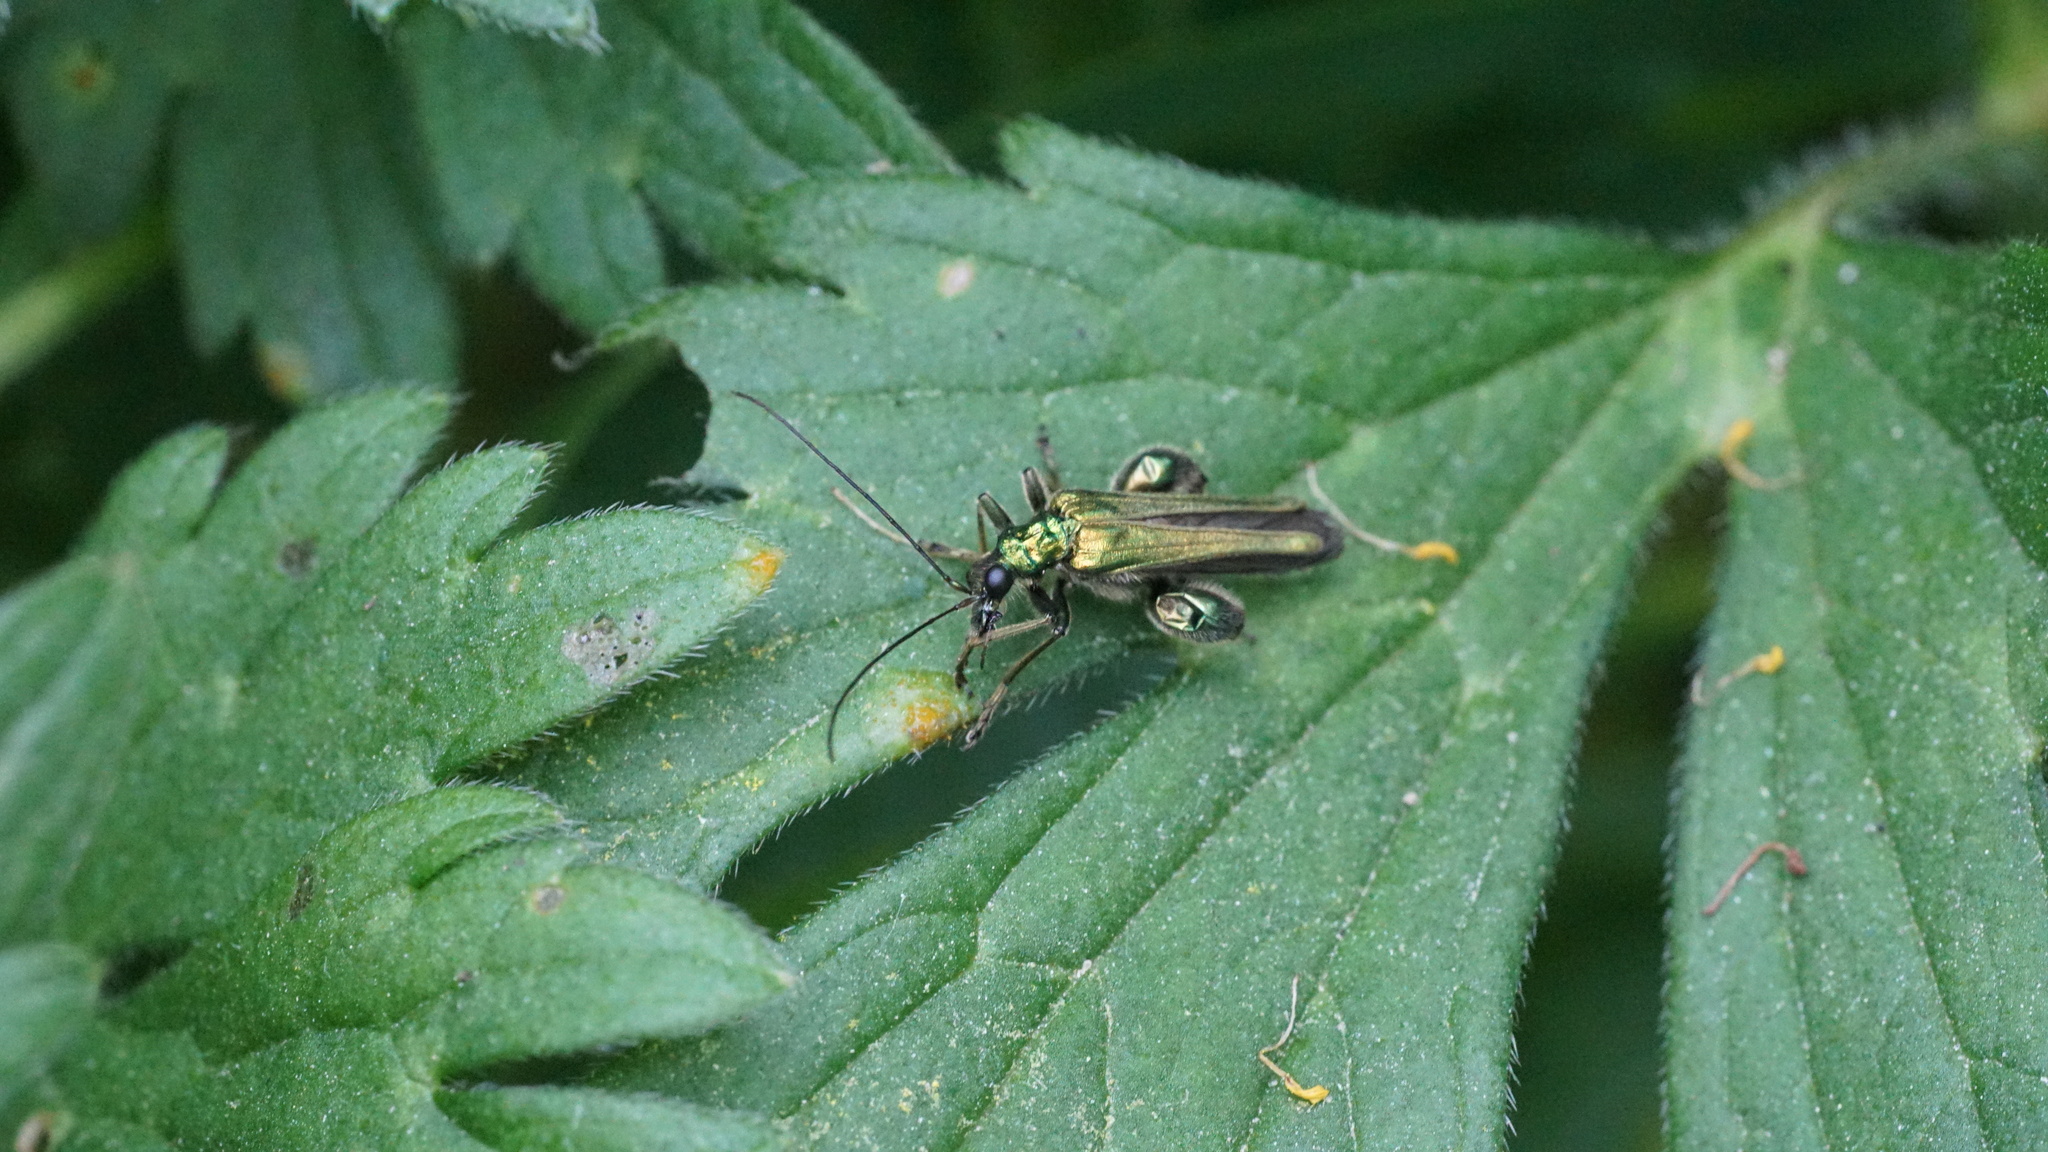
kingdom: Animalia
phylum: Arthropoda
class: Insecta
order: Coleoptera
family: Oedemeridae
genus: Oedemera
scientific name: Oedemera nobilis
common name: Swollen-thighed beetle
